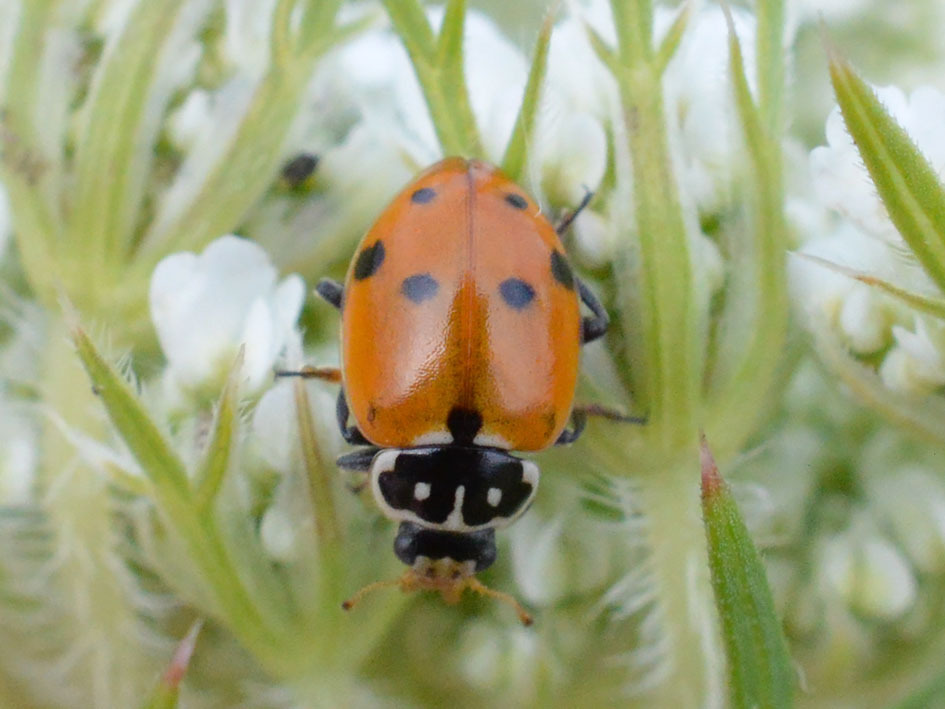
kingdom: Animalia
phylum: Arthropoda
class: Insecta
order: Coleoptera
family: Coccinellidae
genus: Hippodamia
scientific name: Hippodamia variegata
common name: Ladybird beetle
